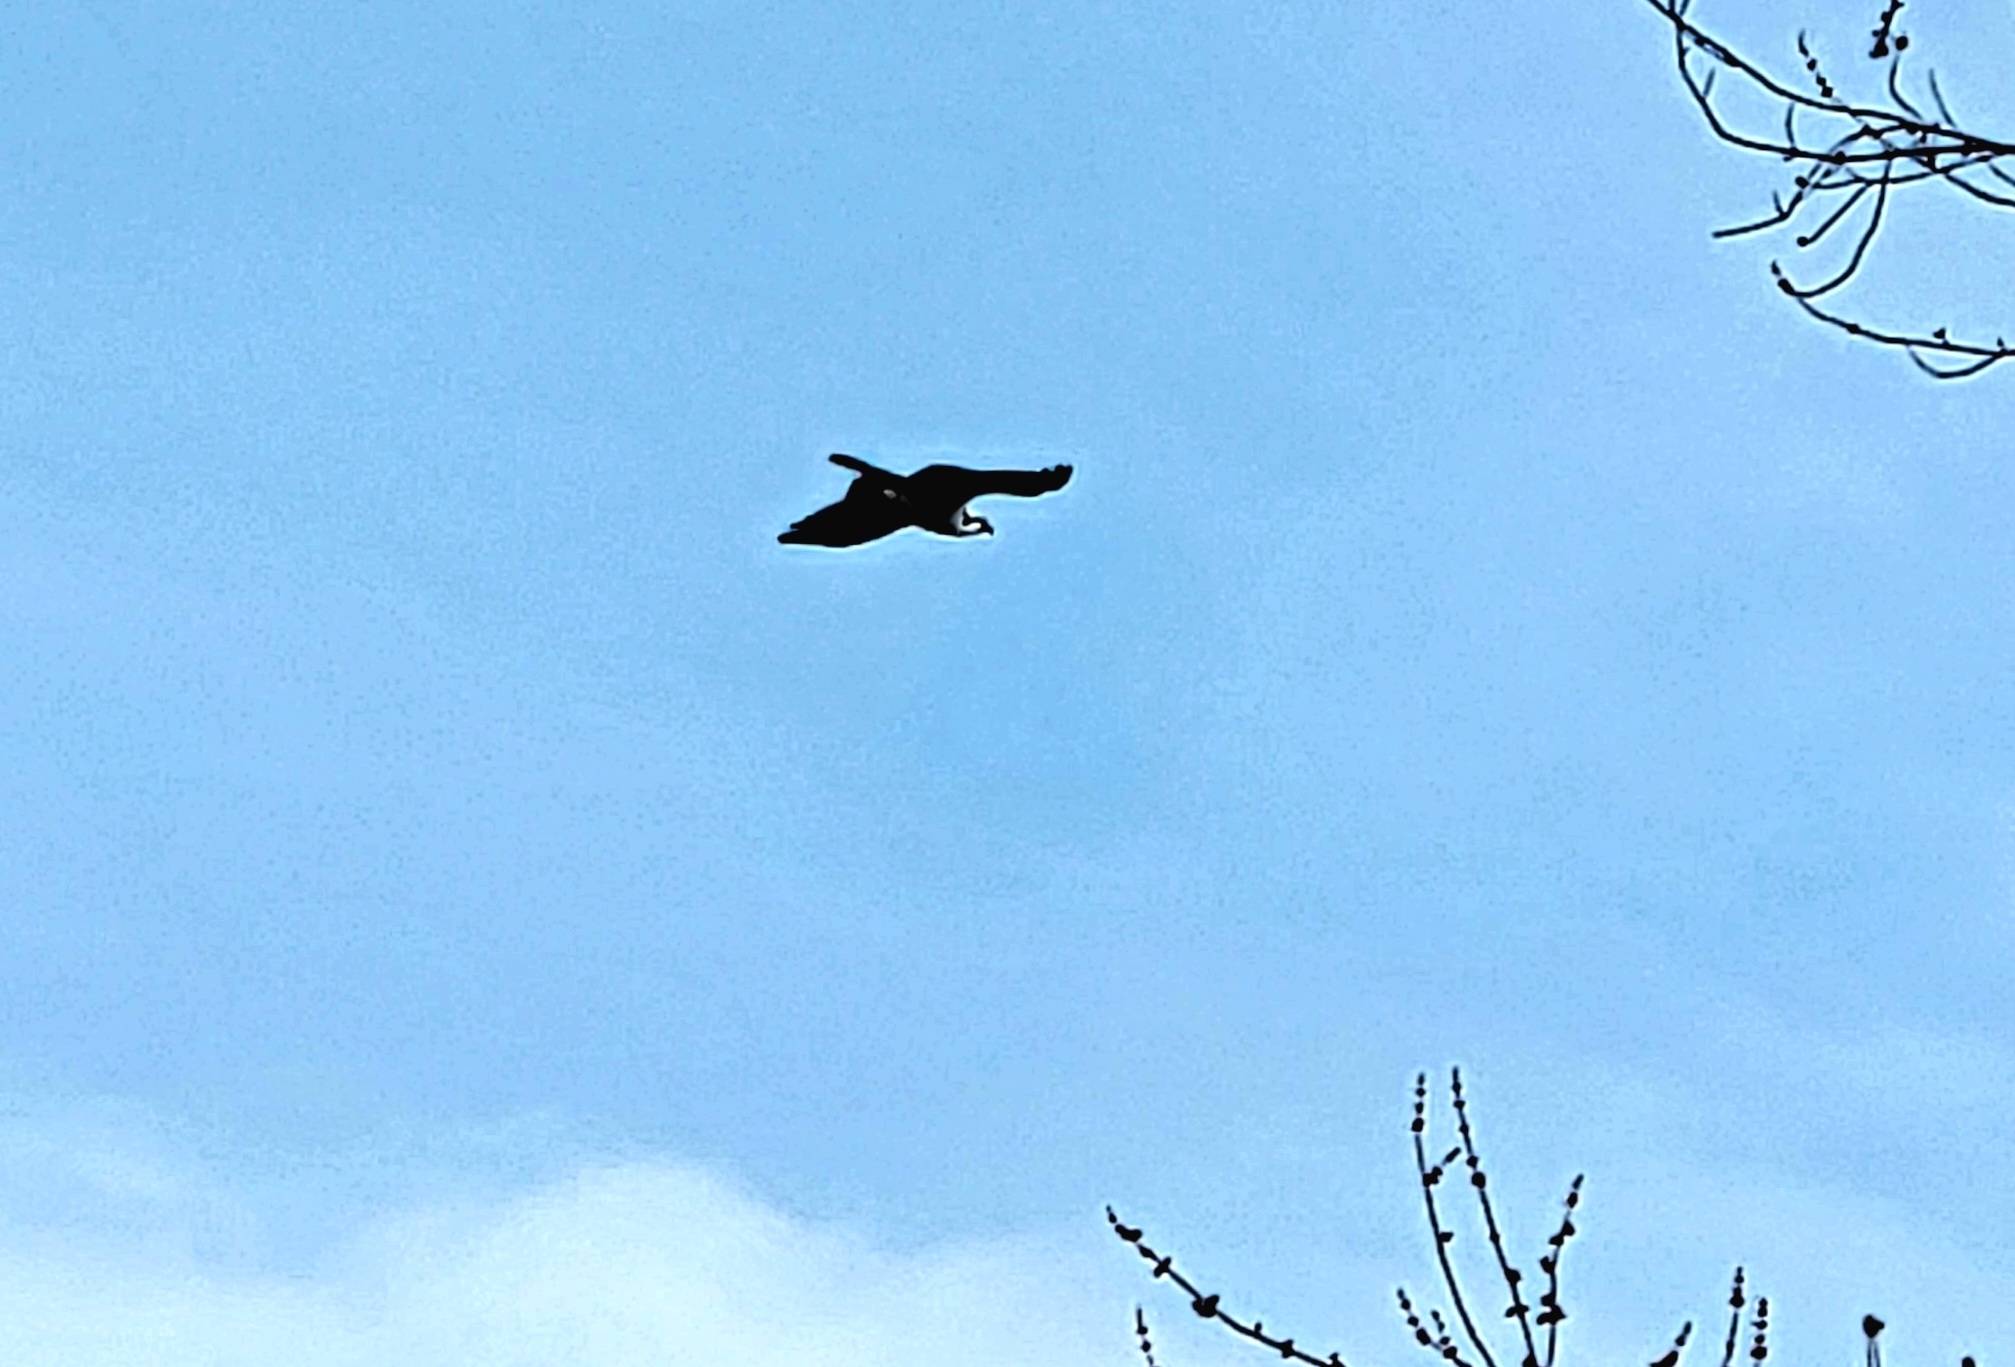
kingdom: Animalia
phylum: Chordata
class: Aves
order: Accipitriformes
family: Pandionidae
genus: Pandion
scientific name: Pandion haliaetus
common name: Osprey
